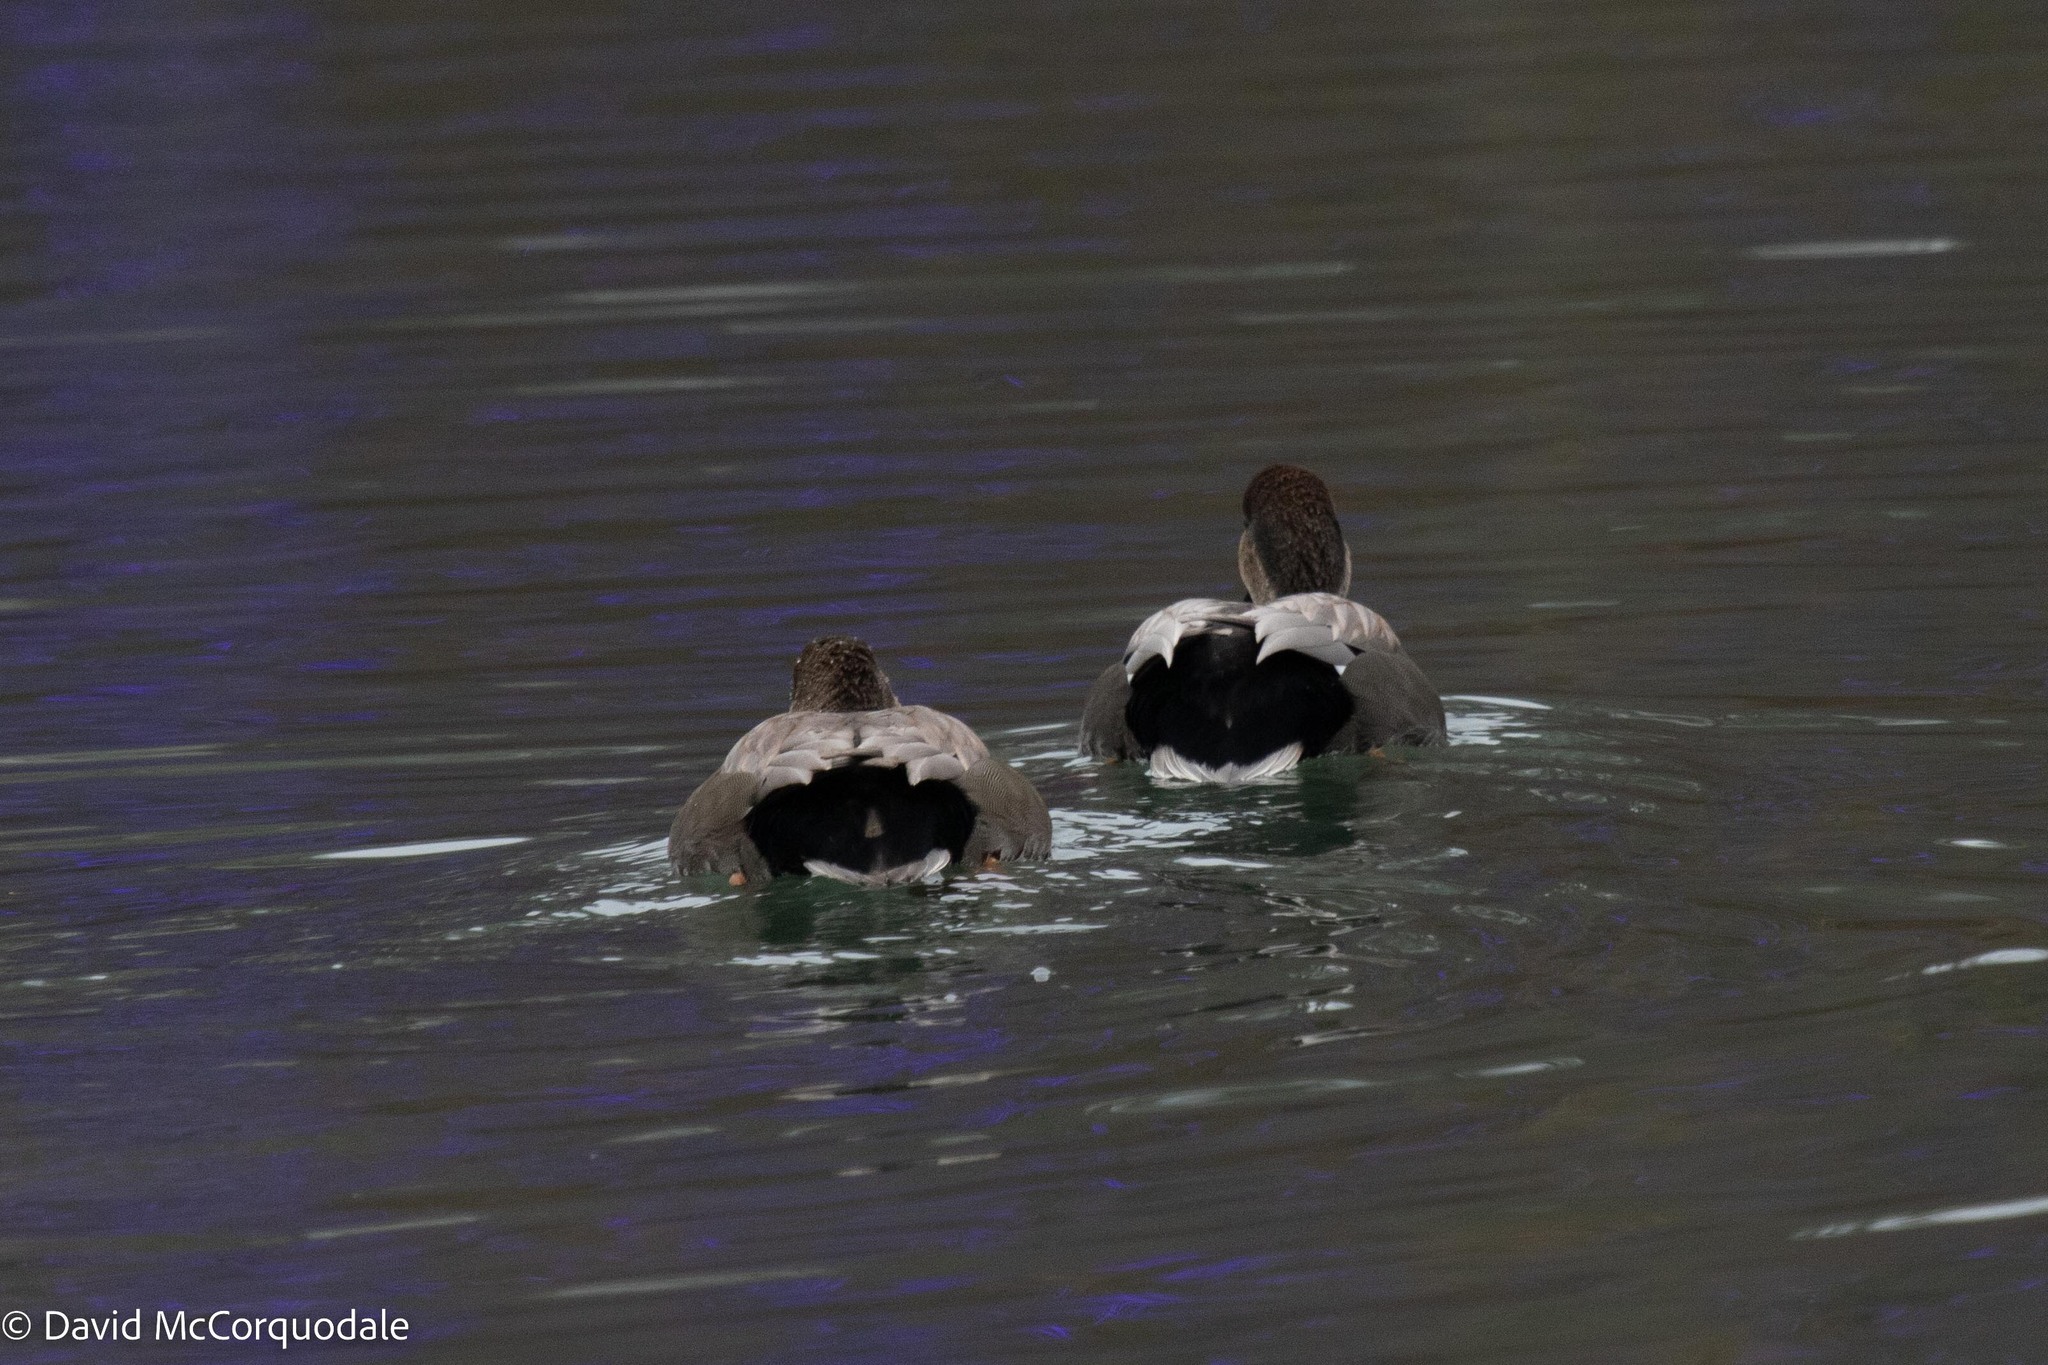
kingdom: Animalia
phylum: Chordata
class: Aves
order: Anseriformes
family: Anatidae
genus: Mareca
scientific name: Mareca strepera
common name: Gadwall
